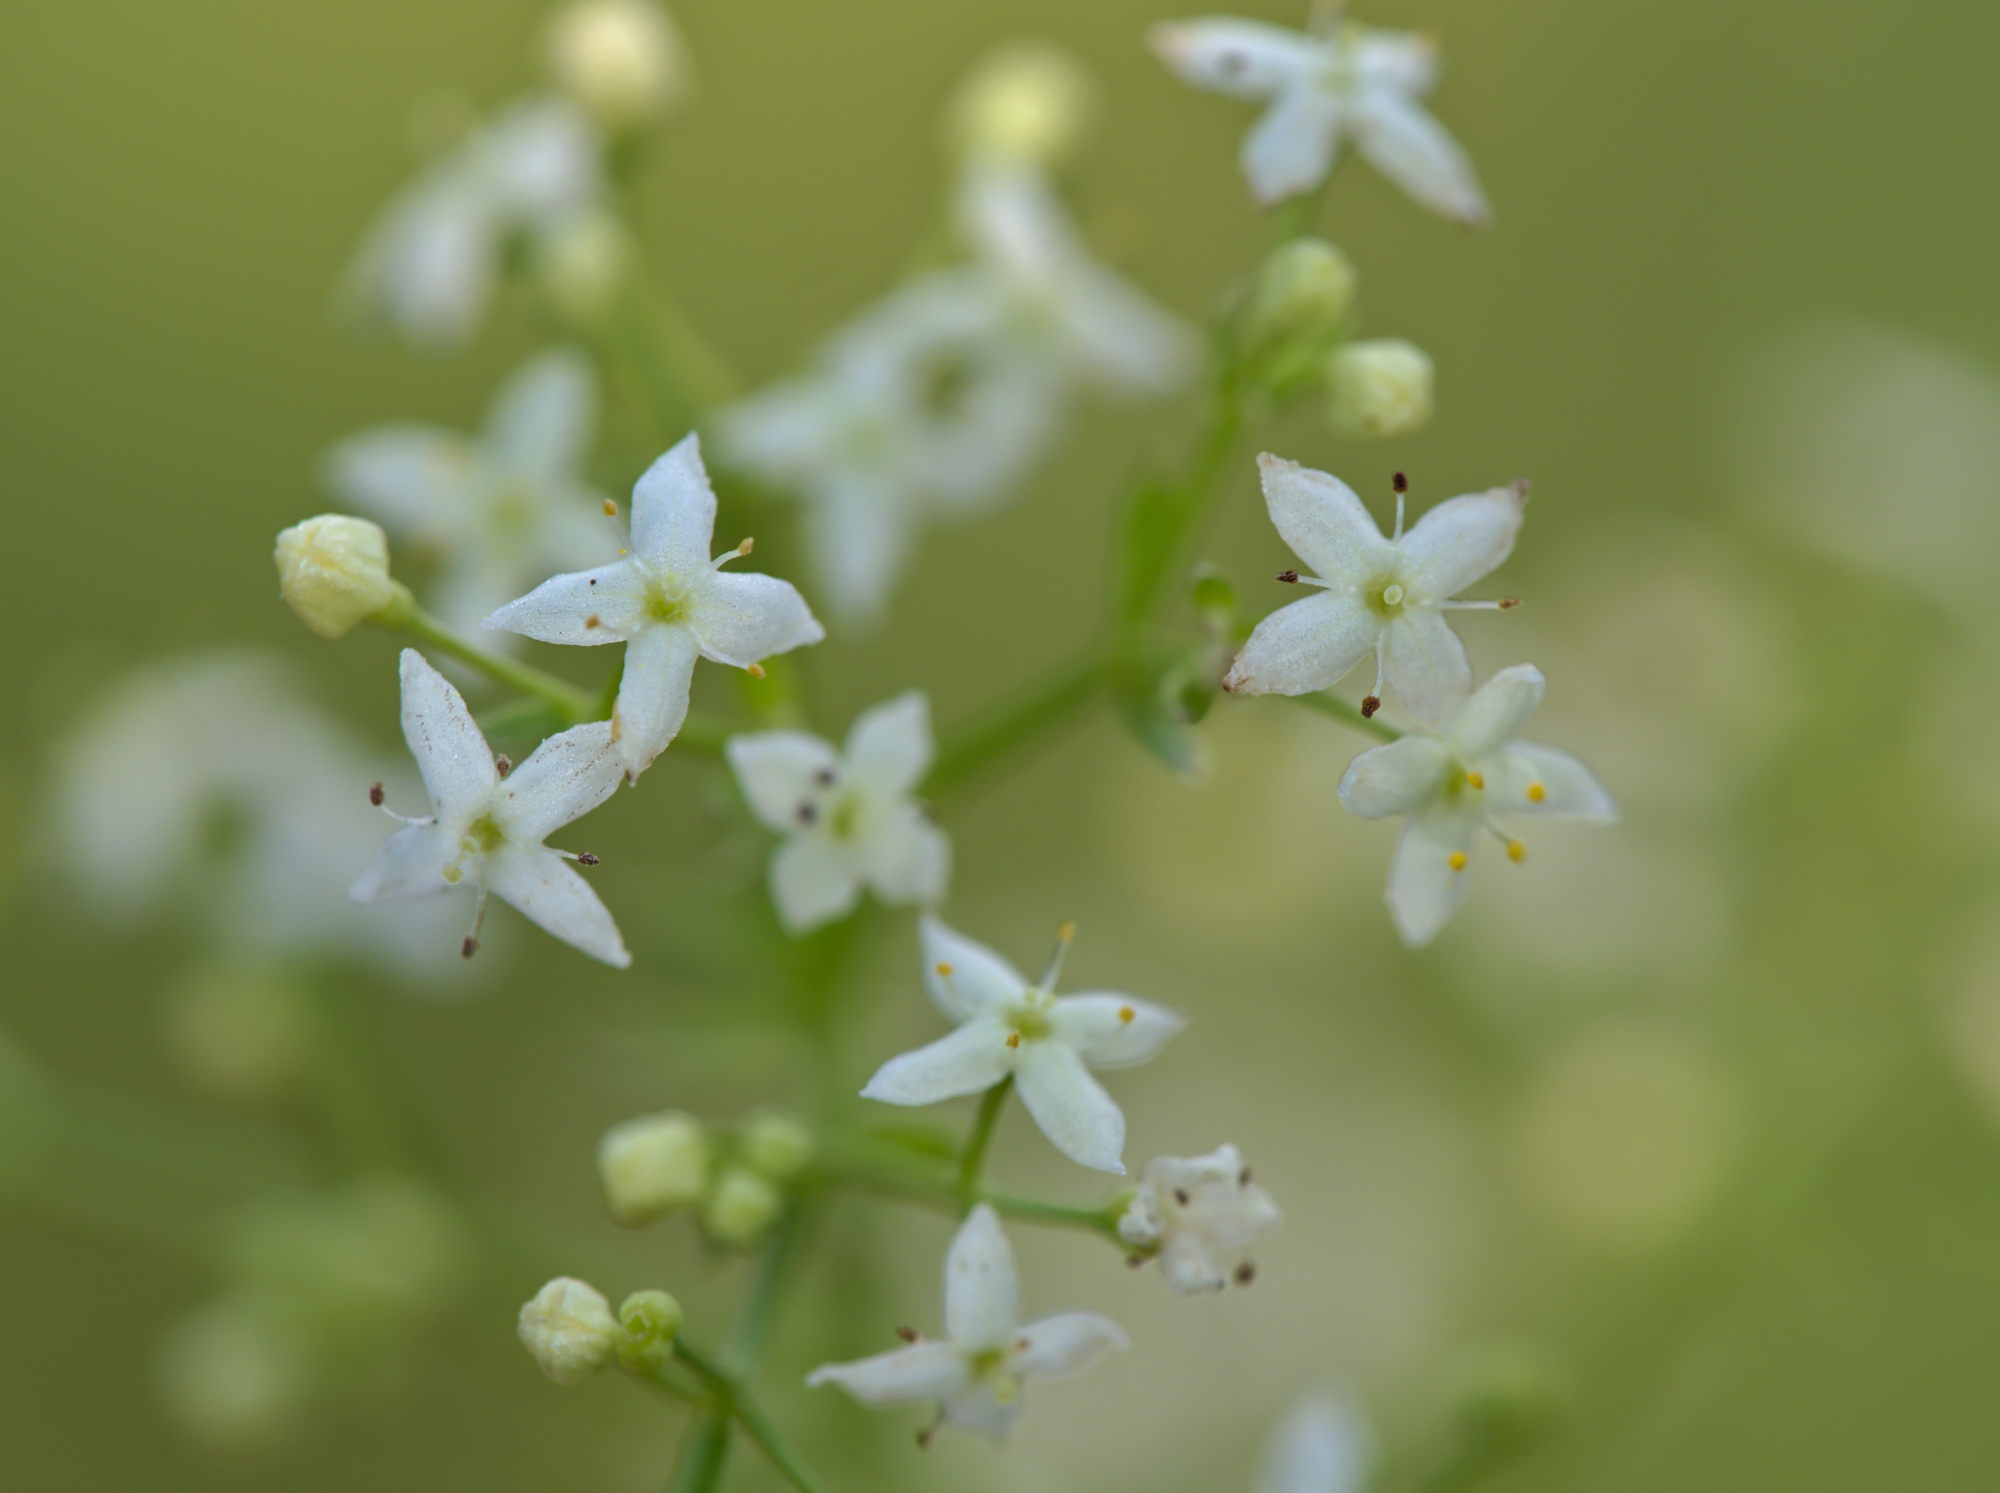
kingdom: Plantae
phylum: Tracheophyta
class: Magnoliopsida
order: Gentianales
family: Rubiaceae
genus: Galium
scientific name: Galium mollugo
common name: Hedge bedstraw
